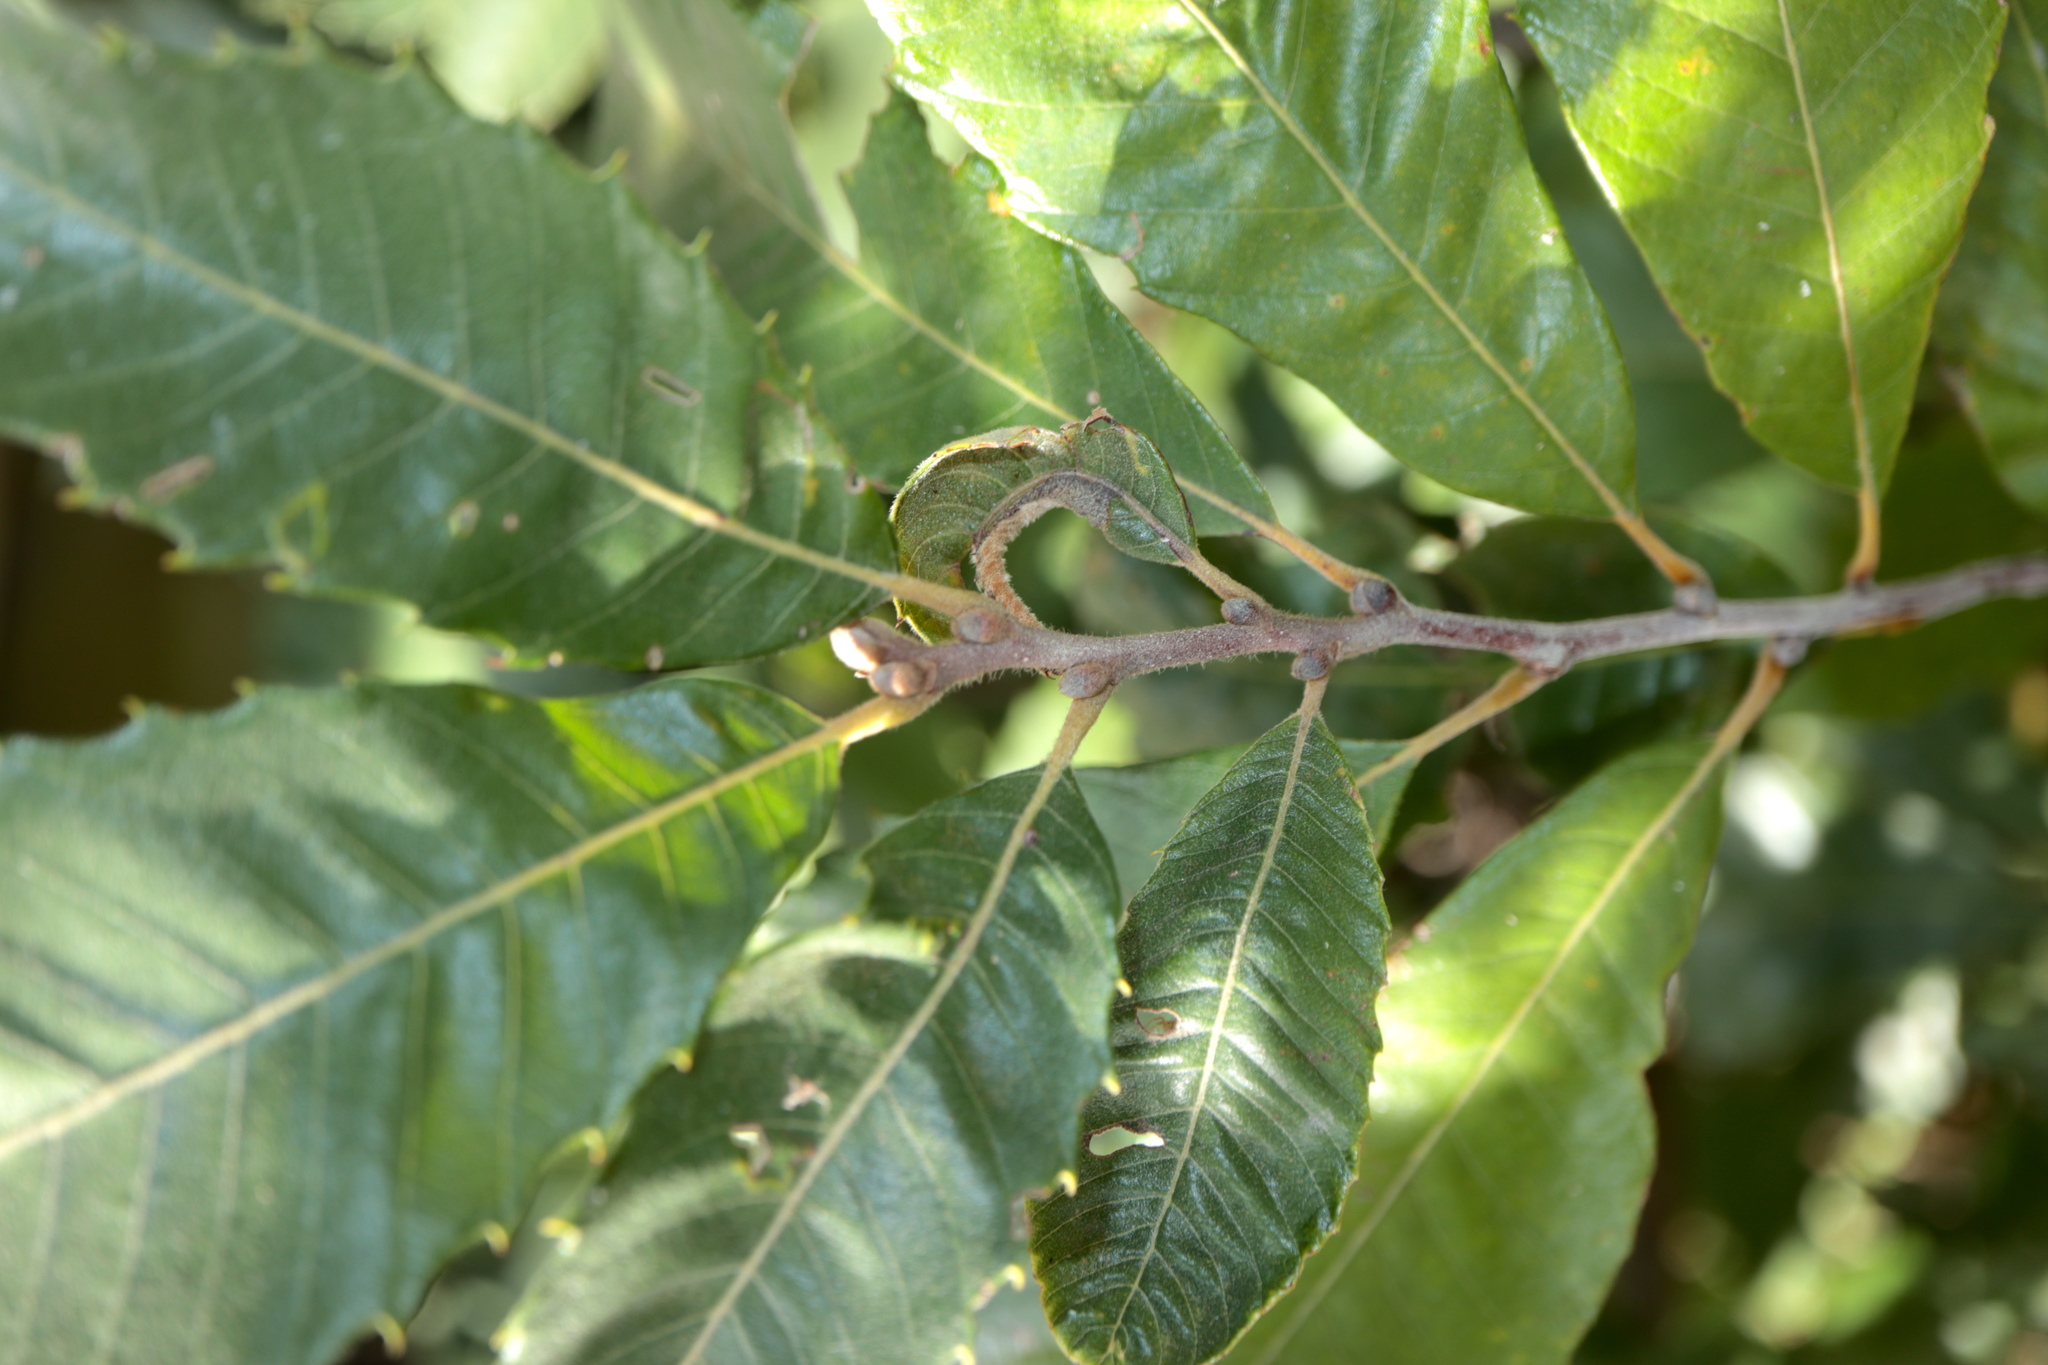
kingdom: Plantae
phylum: Tracheophyta
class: Magnoliopsida
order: Fagales
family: Fagaceae
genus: Castanea
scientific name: Castanea pumila
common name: Chinkapin
